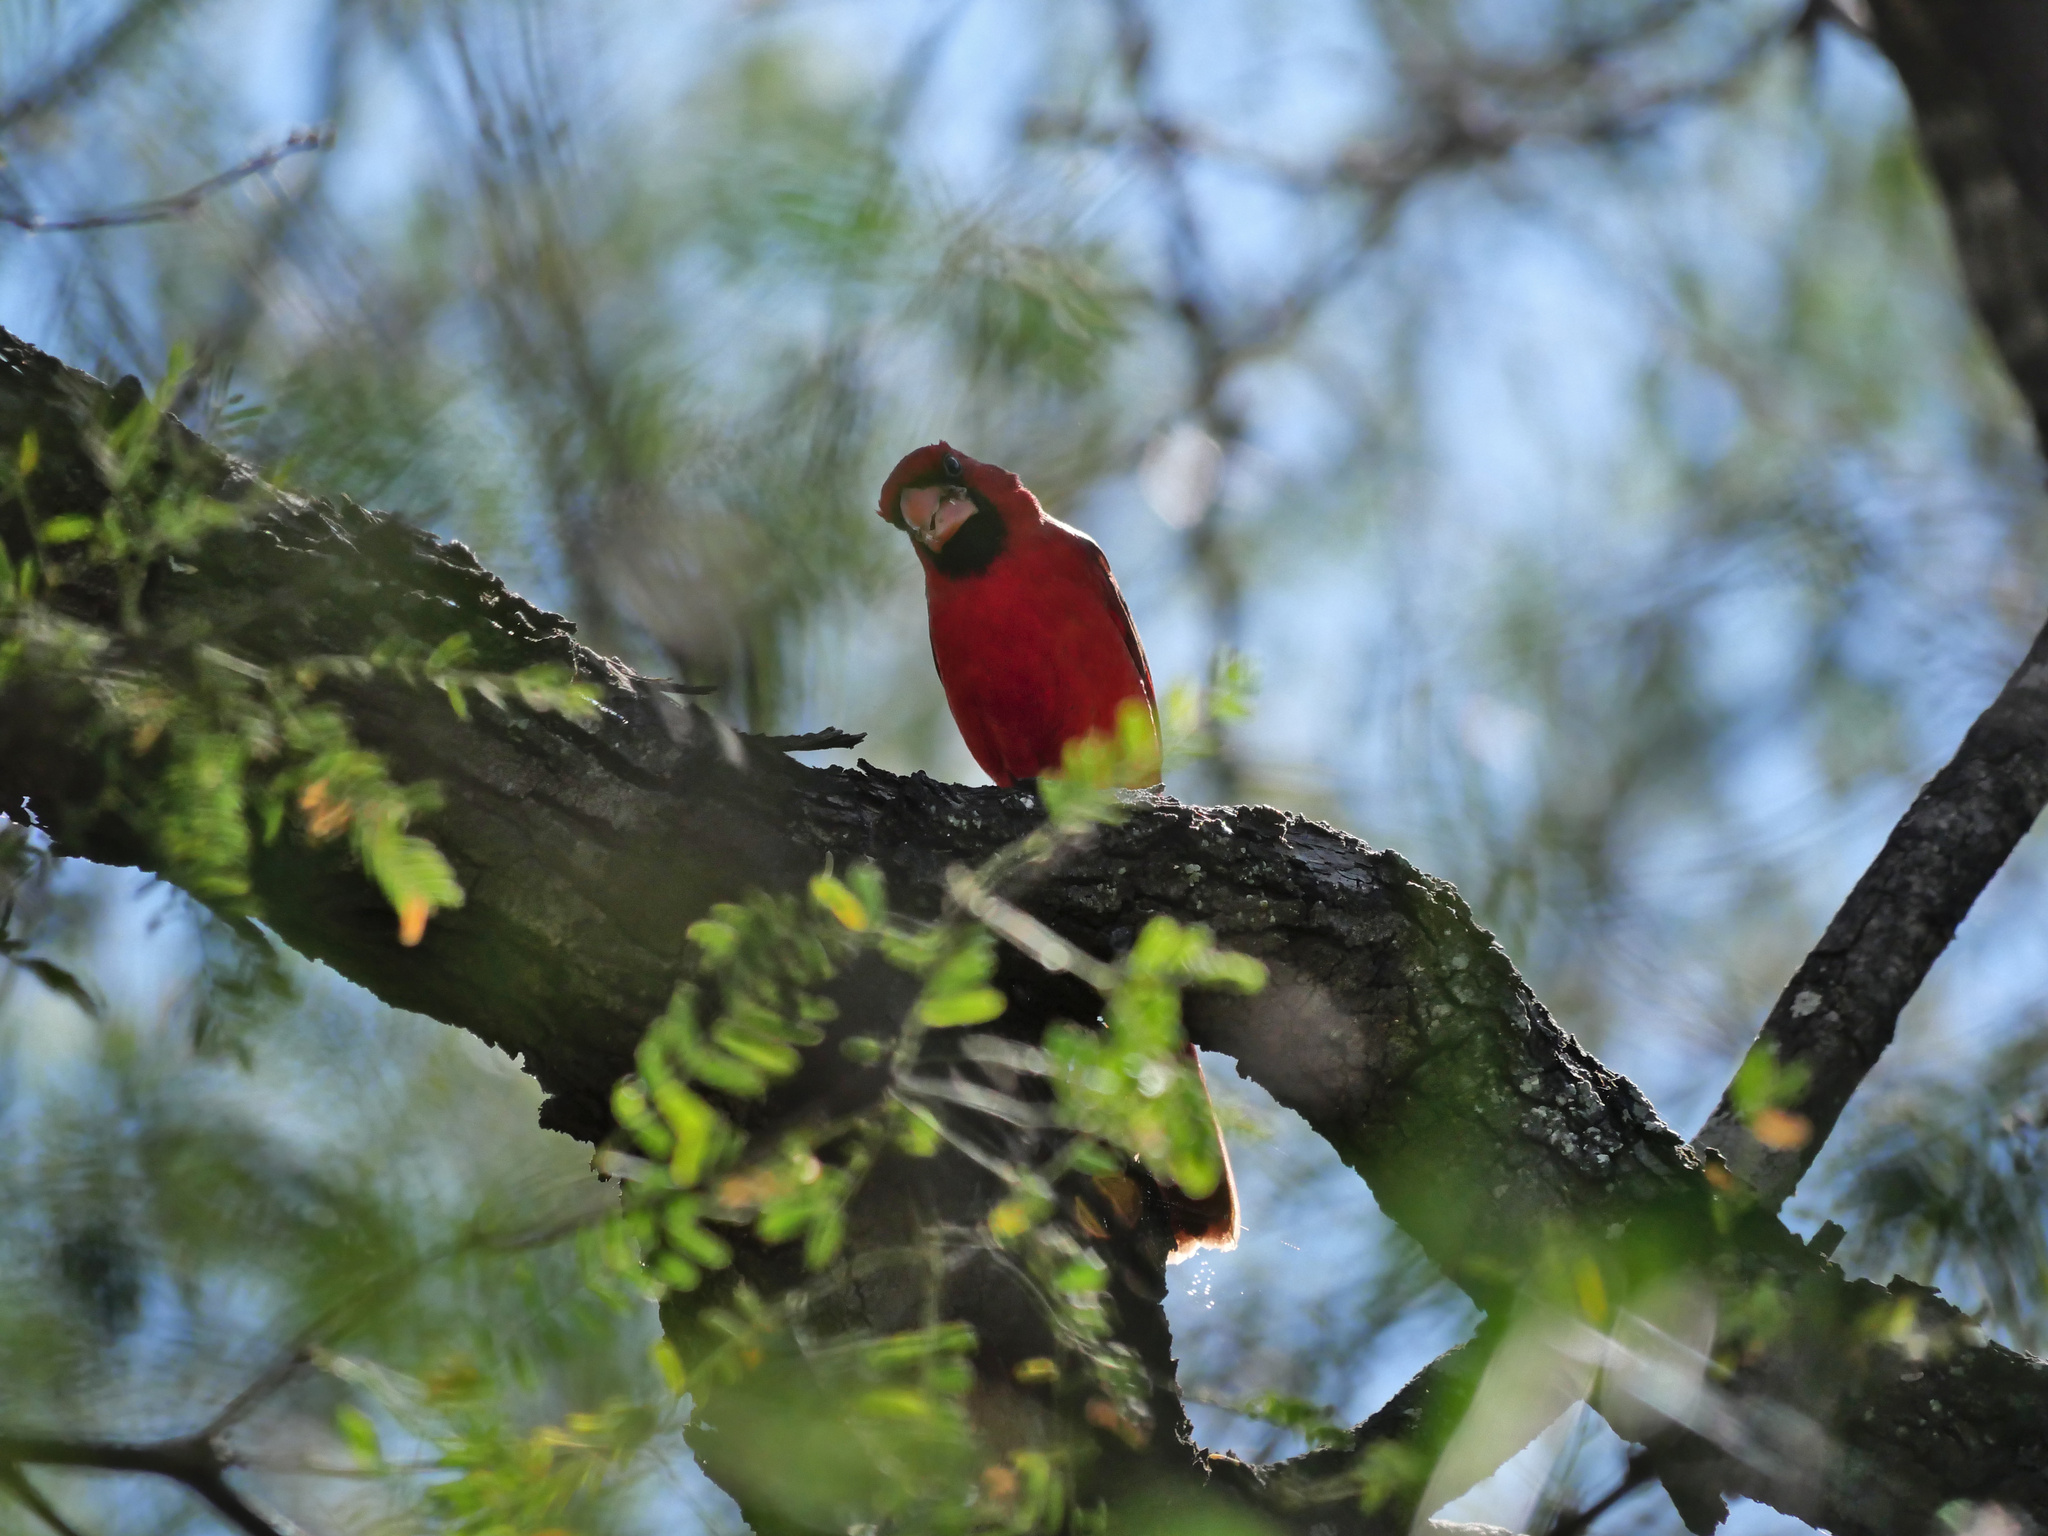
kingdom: Animalia
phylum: Chordata
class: Aves
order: Passeriformes
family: Cardinalidae
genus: Cardinalis
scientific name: Cardinalis cardinalis
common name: Northern cardinal
